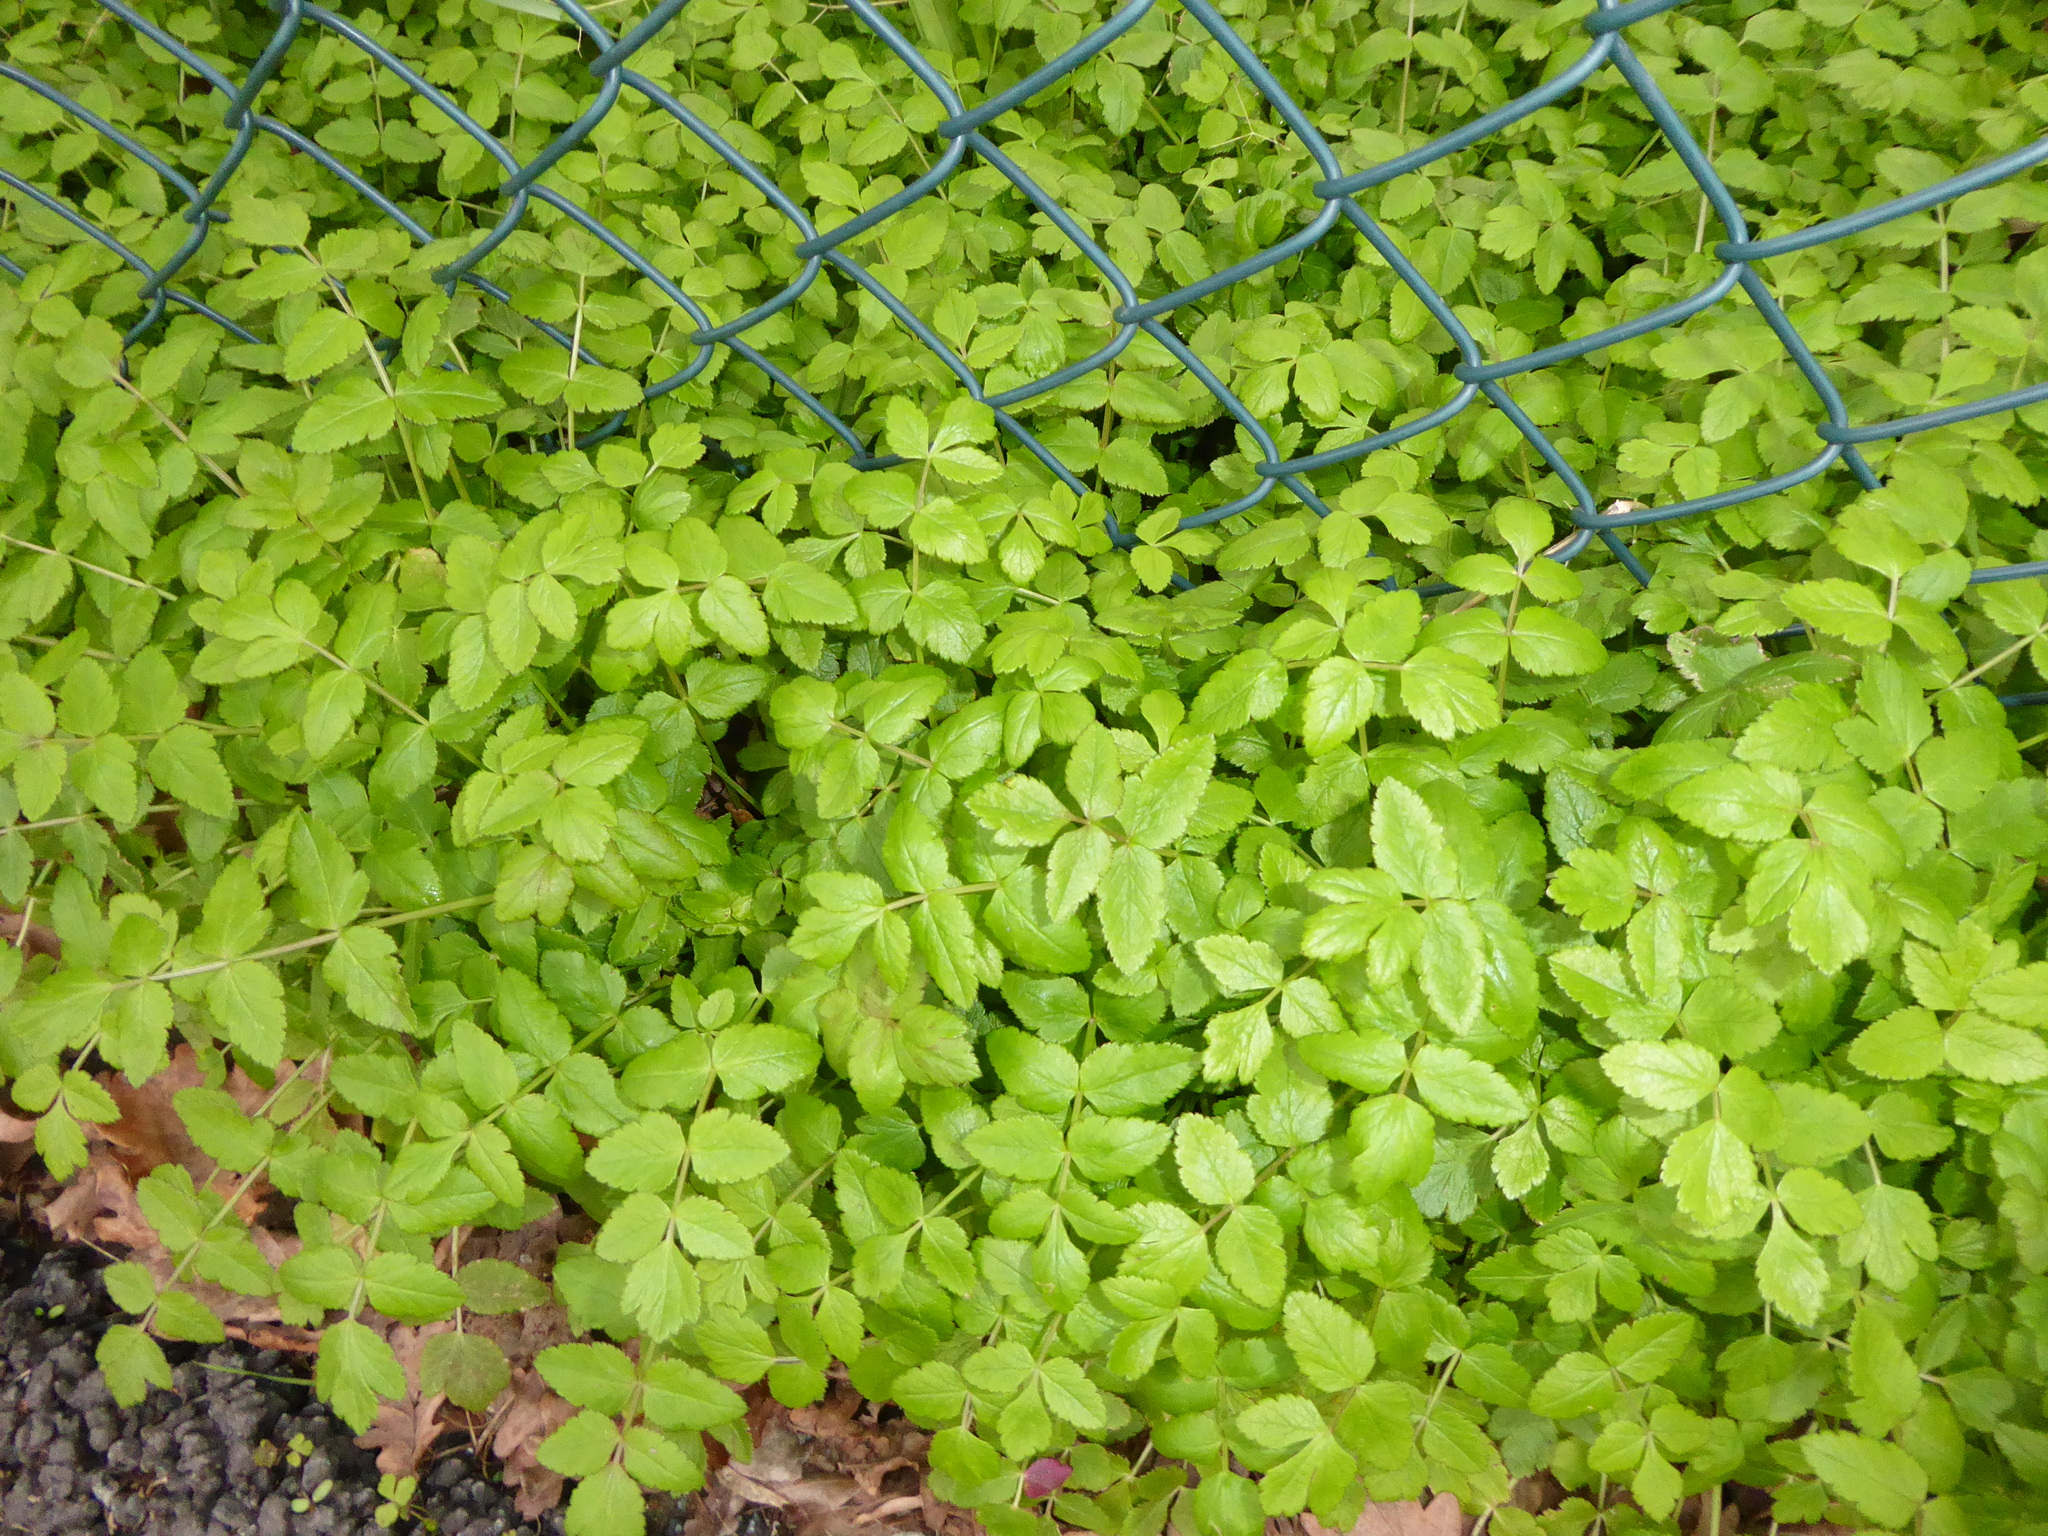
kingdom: Plantae
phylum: Tracheophyta
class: Magnoliopsida
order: Apiales
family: Apiaceae
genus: Sison
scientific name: Sison amomum
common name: Stone-parsley
